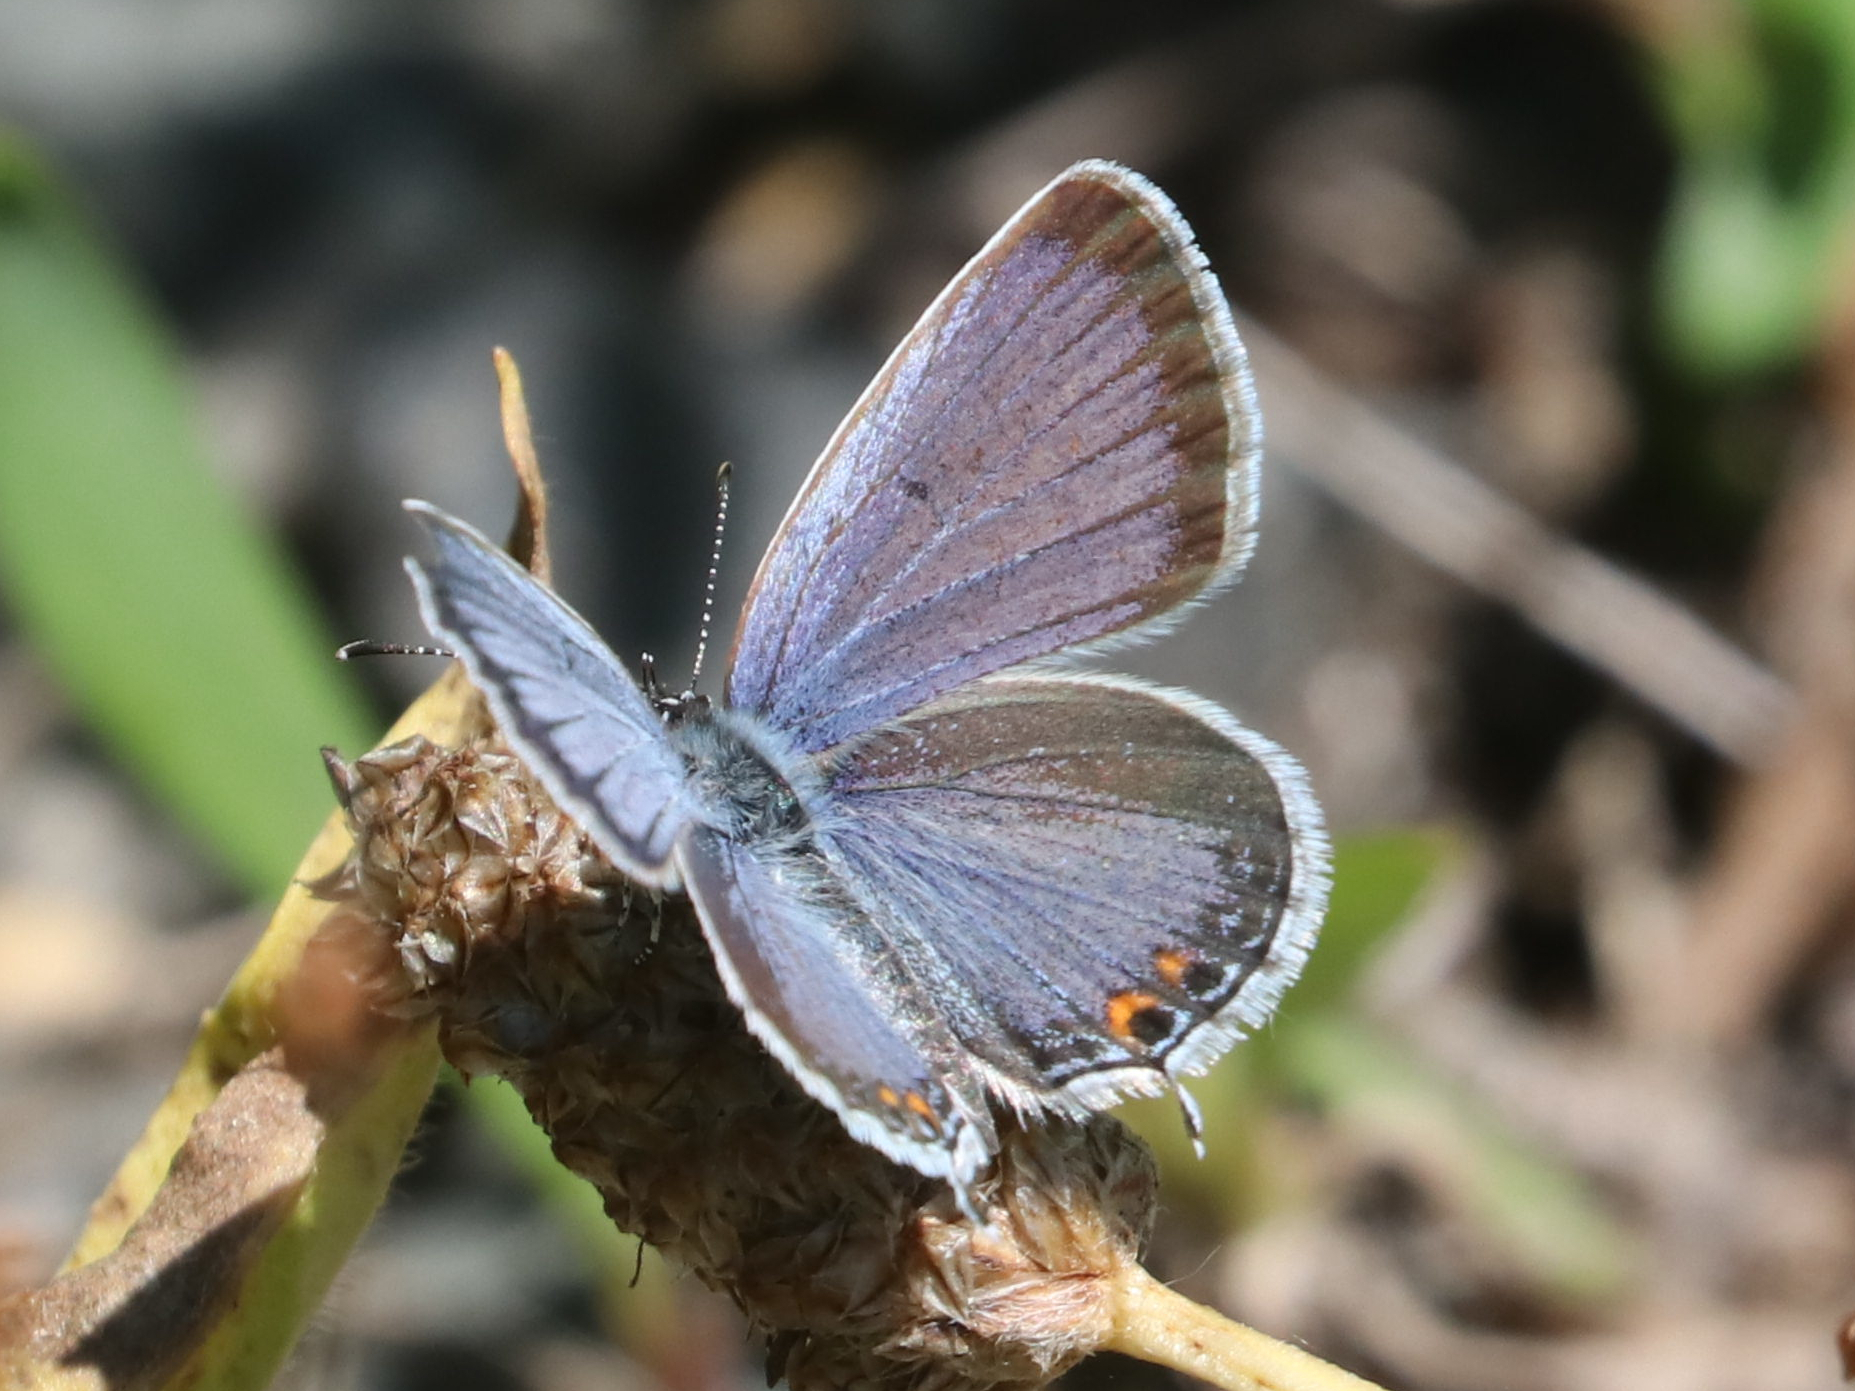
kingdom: Animalia
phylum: Arthropoda
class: Insecta
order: Lepidoptera
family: Lycaenidae
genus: Elkalyce
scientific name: Elkalyce comyntas
